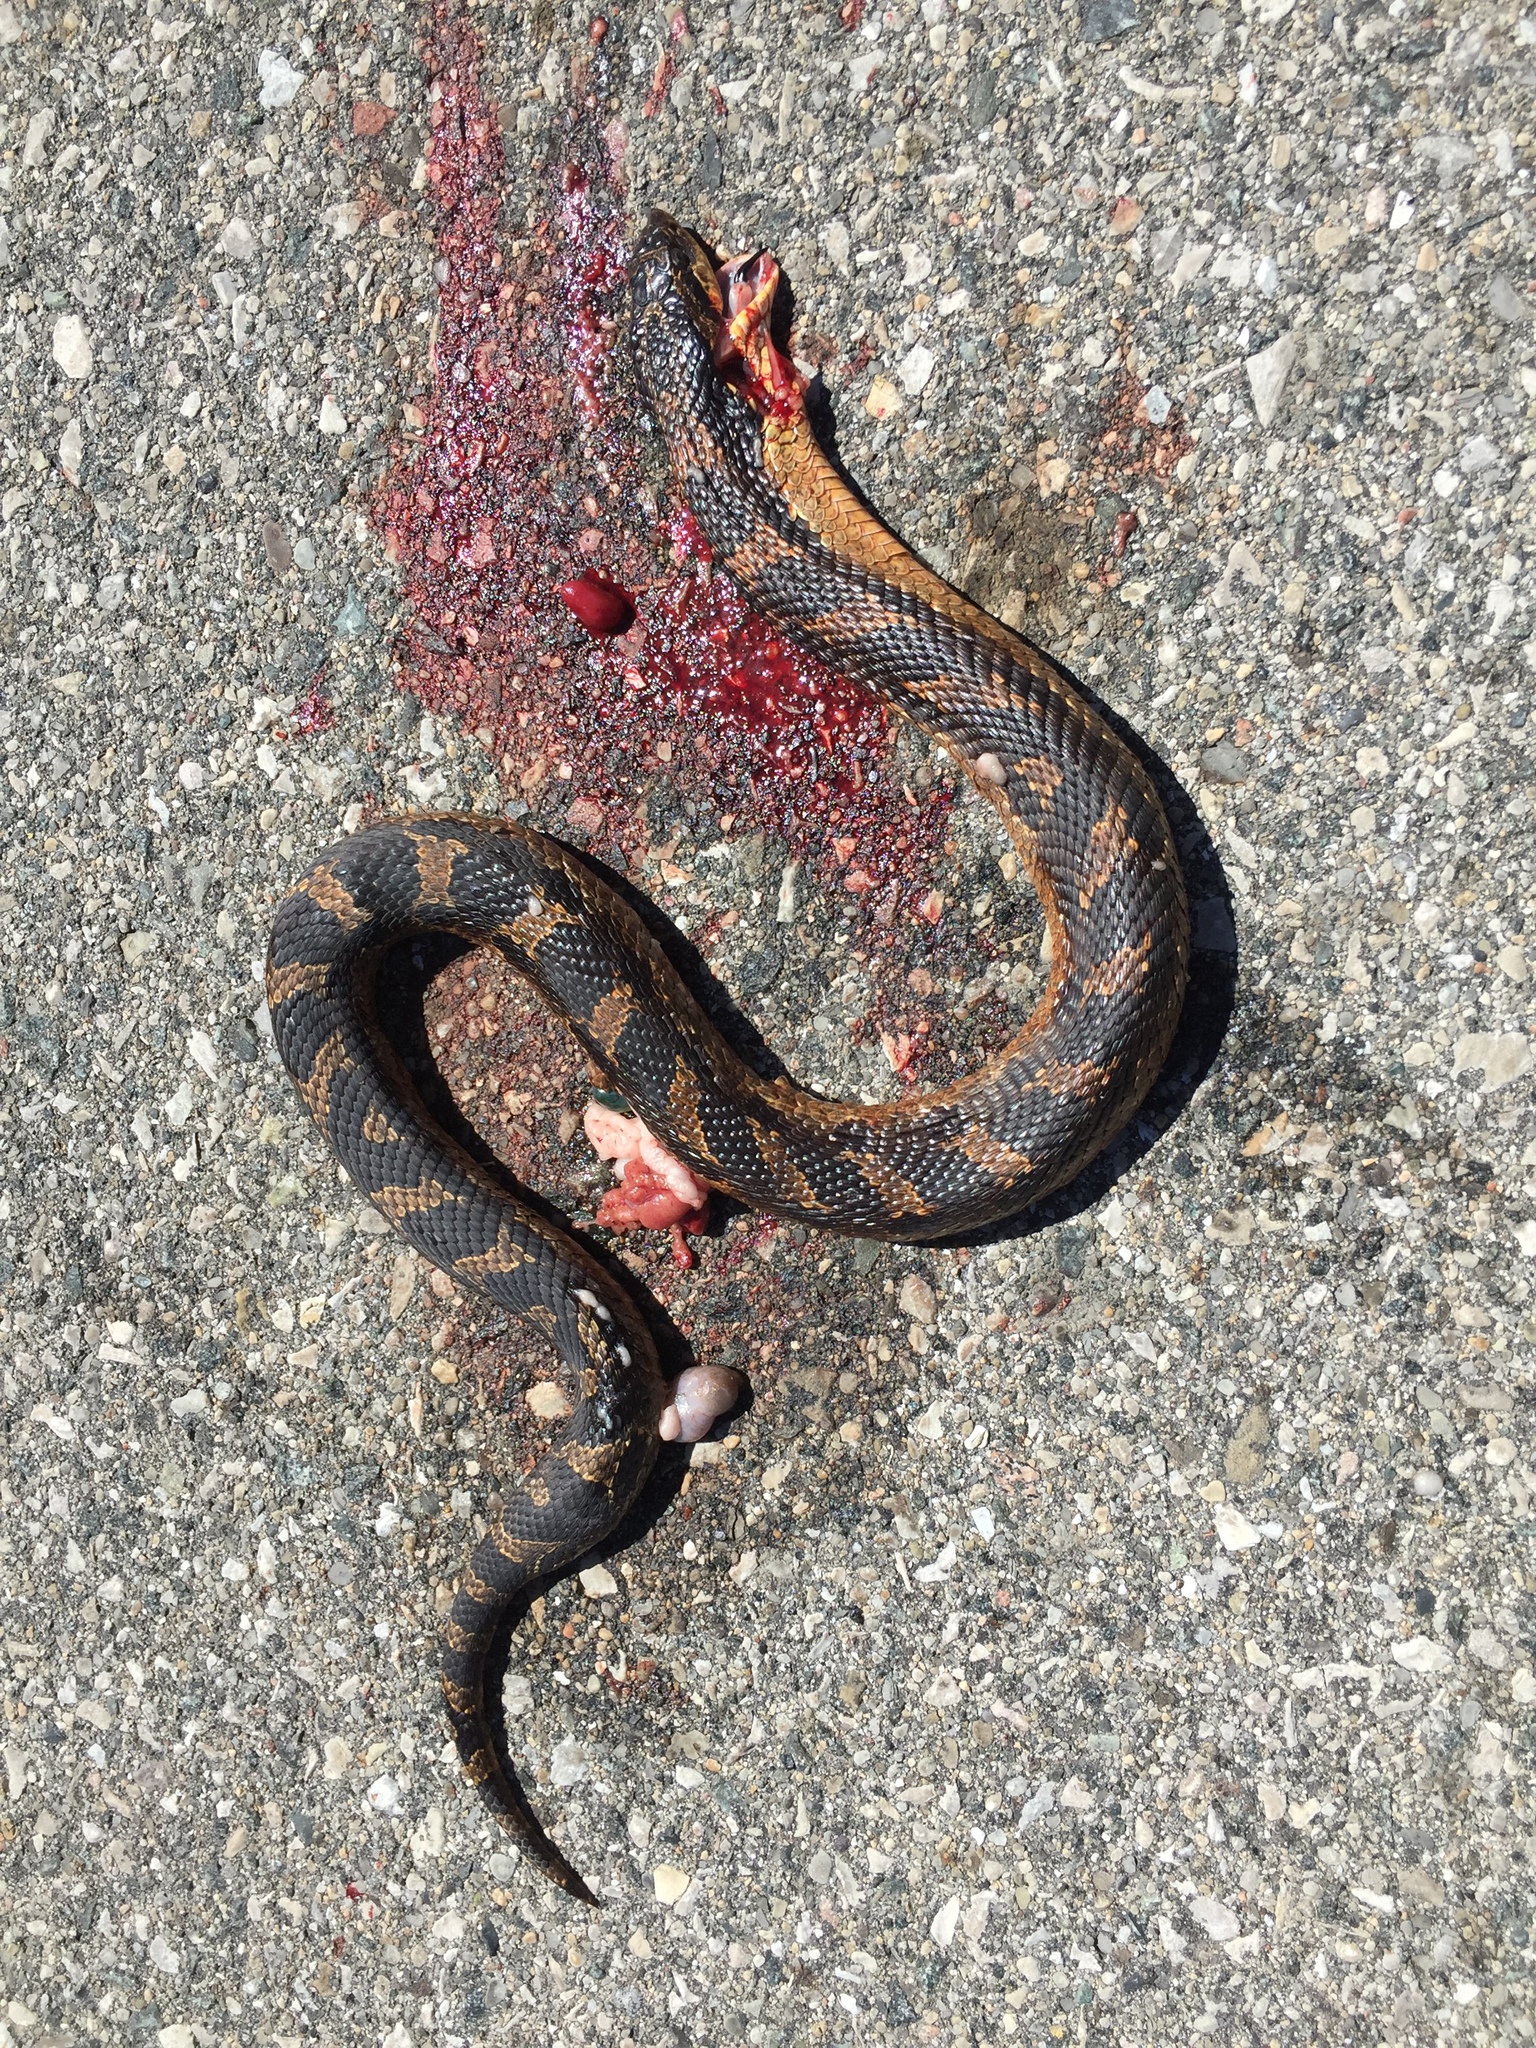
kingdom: Animalia
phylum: Chordata
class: Squamata
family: Colubridae
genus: Heterodon
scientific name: Heterodon platirhinos
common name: Eastern hognose snake
